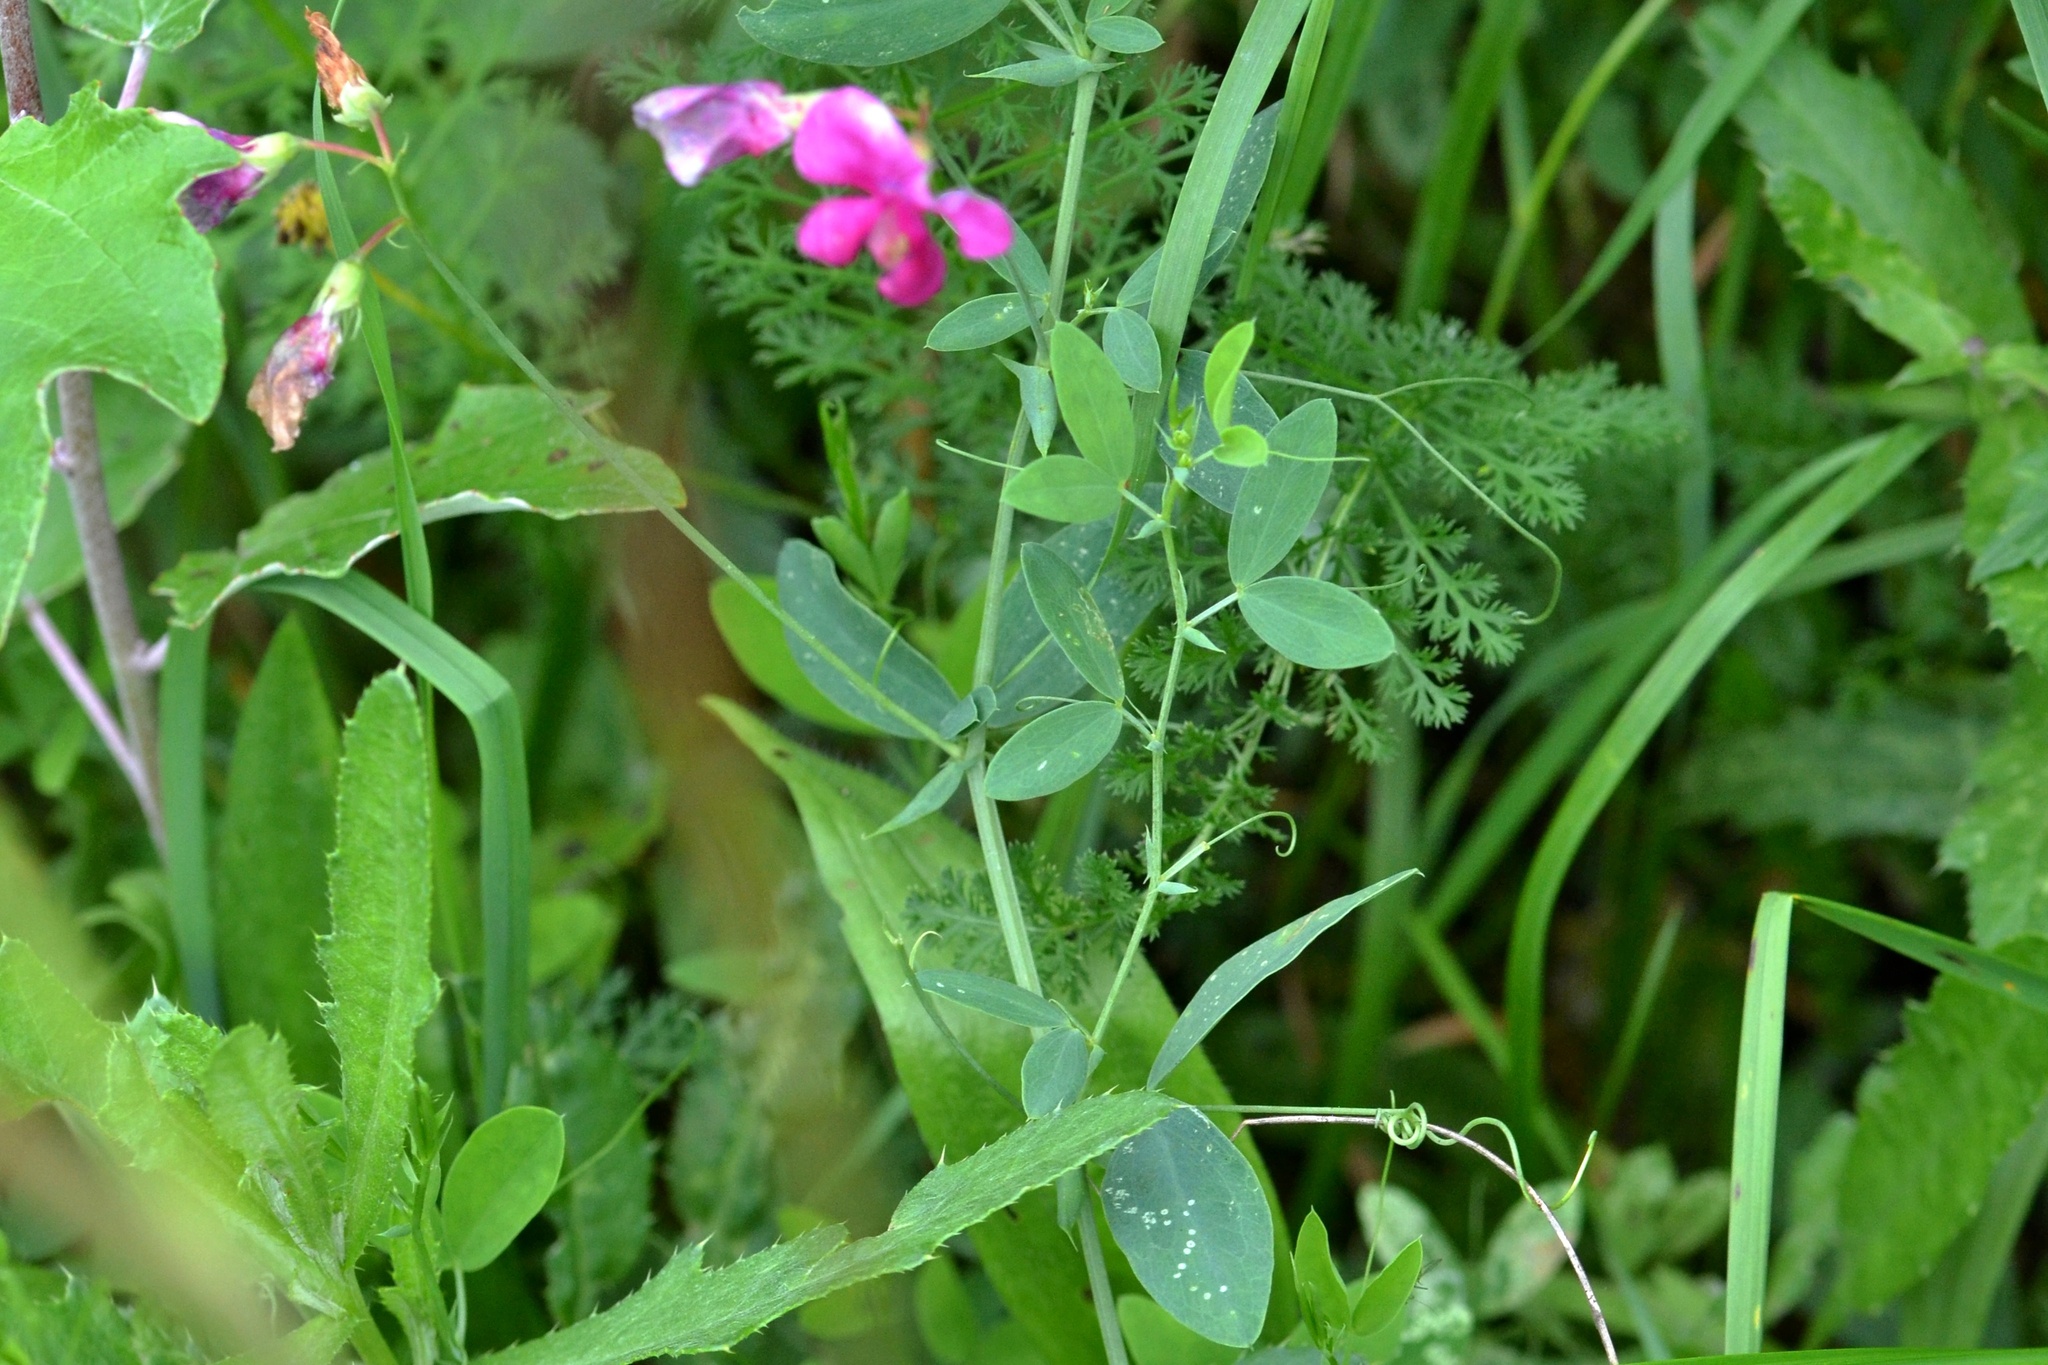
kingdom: Plantae
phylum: Tracheophyta
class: Magnoliopsida
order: Fabales
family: Fabaceae
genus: Lathyrus
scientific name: Lathyrus tuberosus
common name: Tuberous pea
